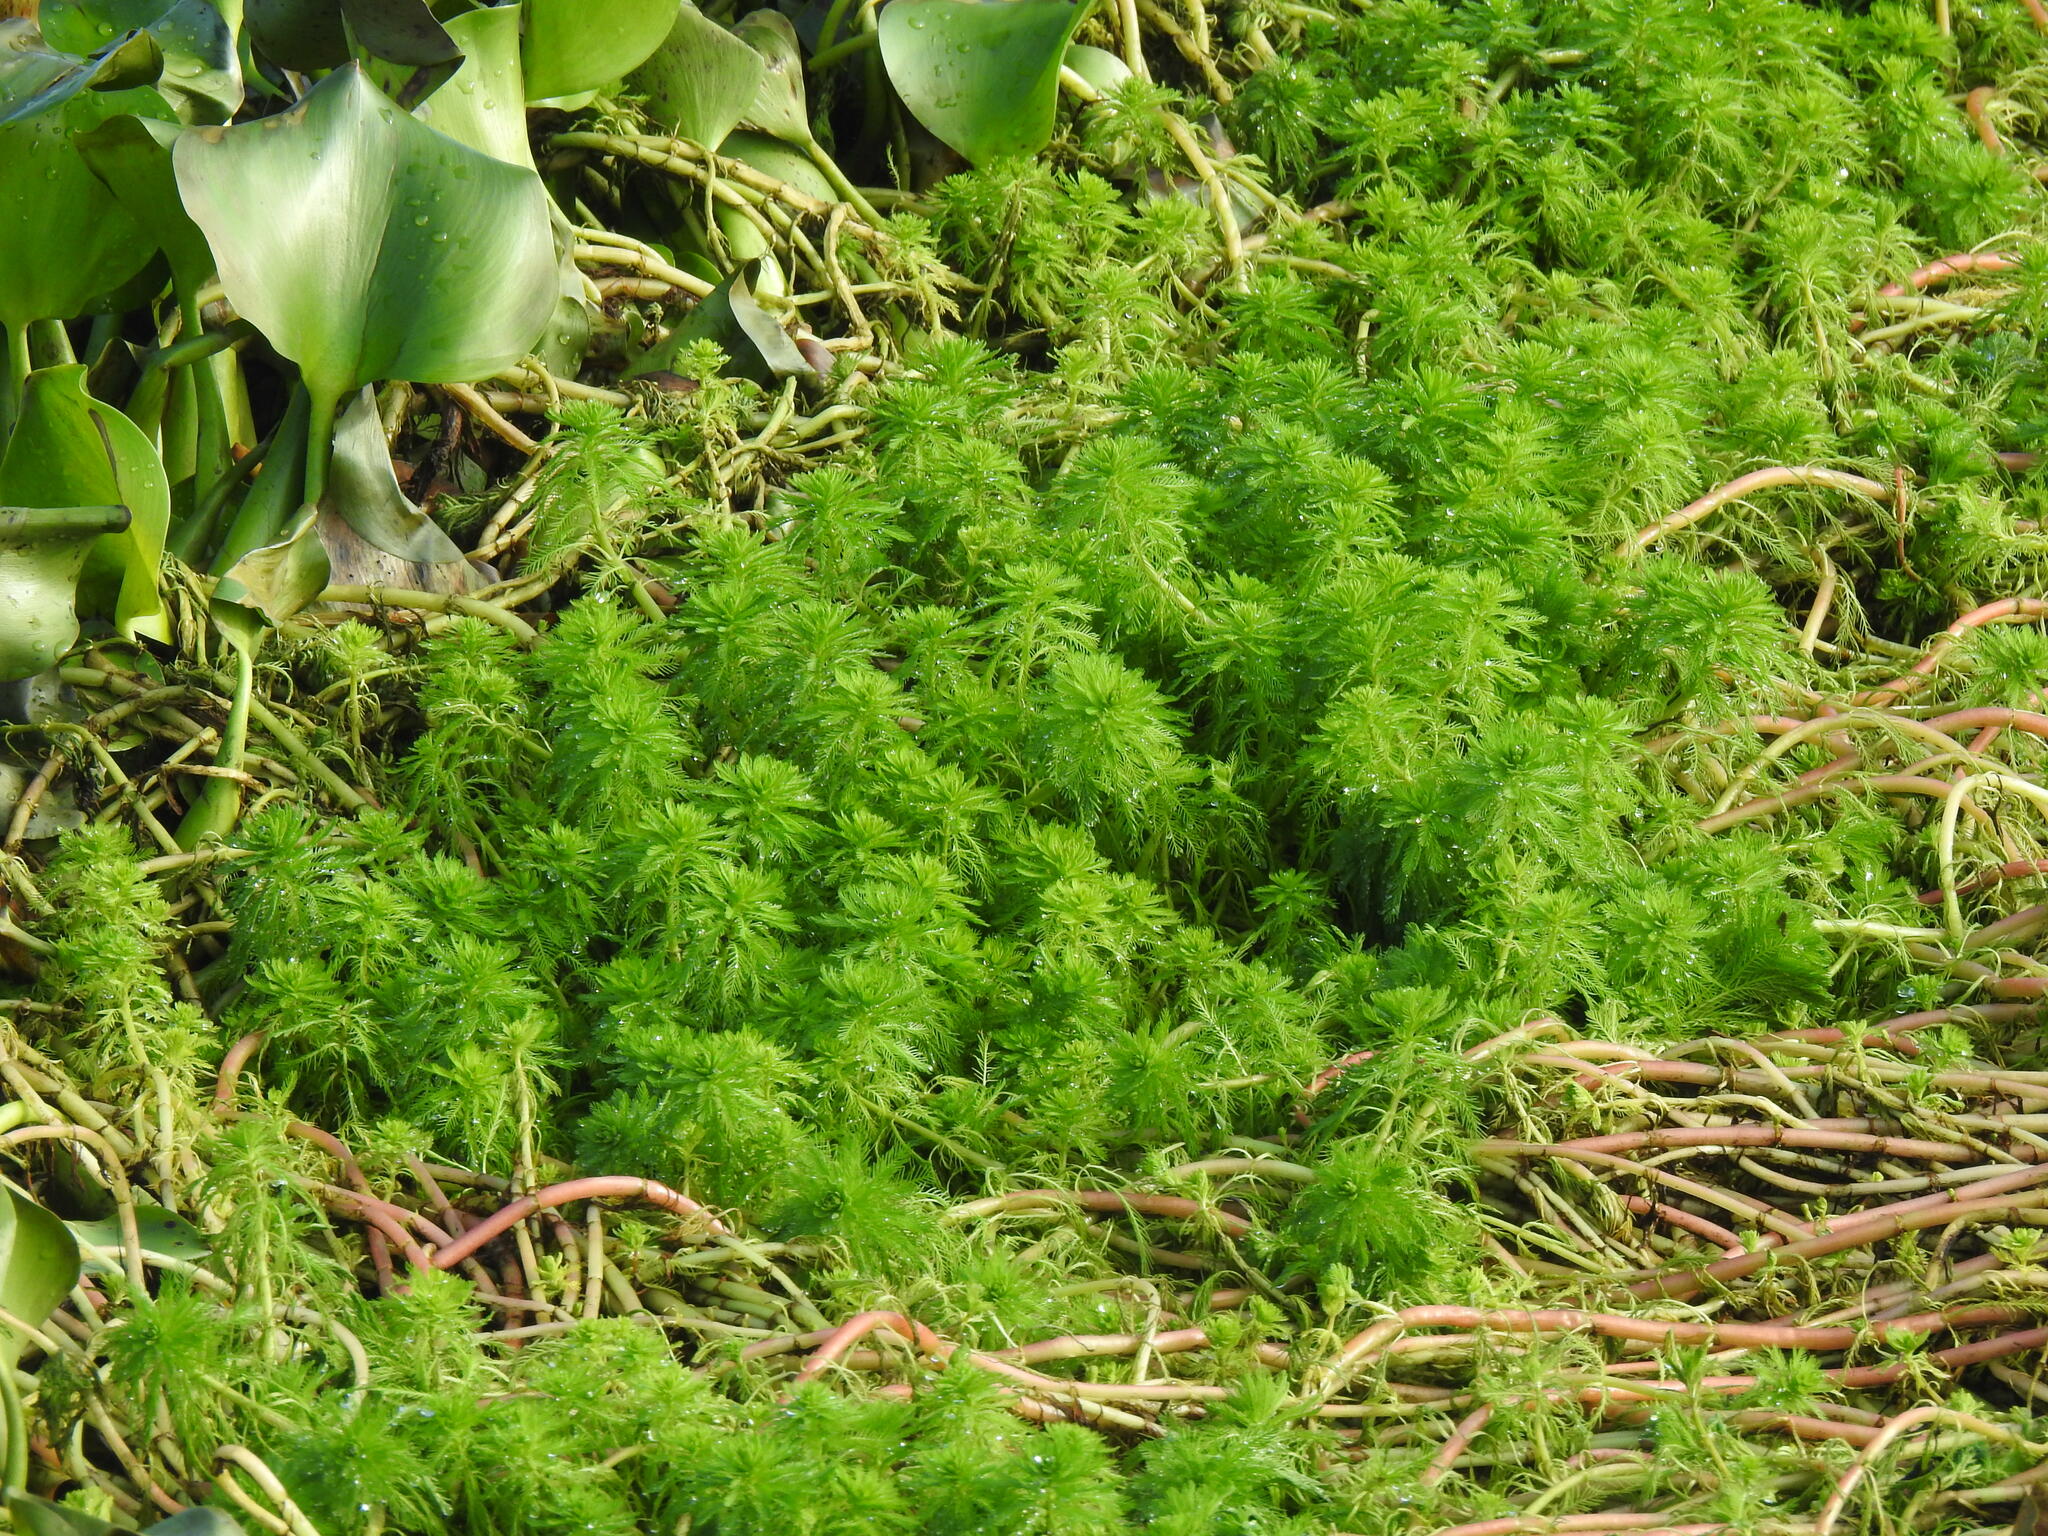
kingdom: Plantae
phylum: Tracheophyta
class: Magnoliopsida
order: Saxifragales
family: Haloragaceae
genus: Myriophyllum
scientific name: Myriophyllum aquaticum
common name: Parrot's feather
